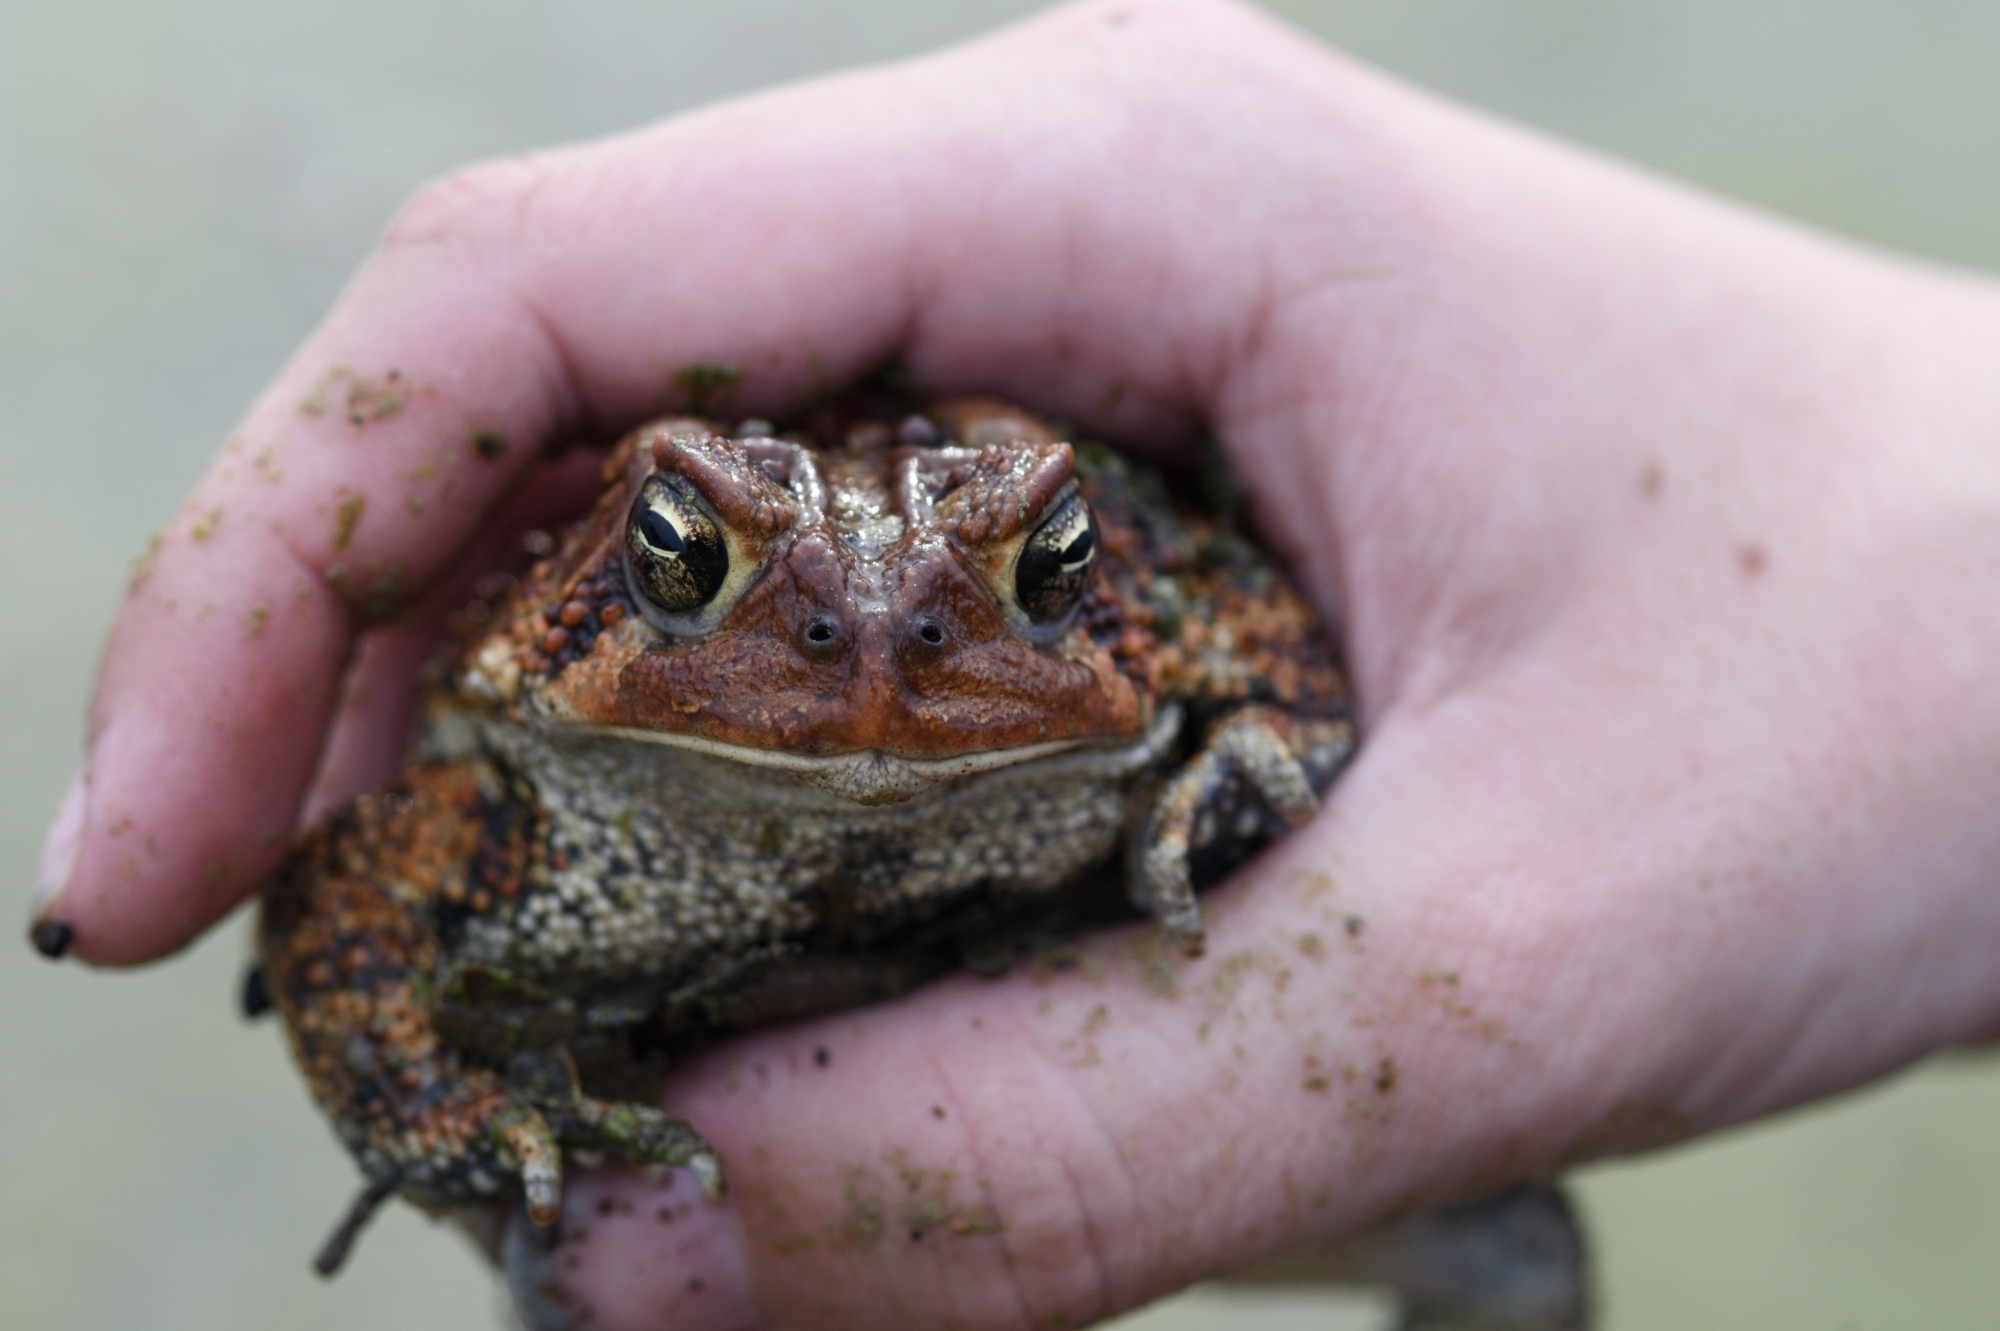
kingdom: Animalia
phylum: Chordata
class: Amphibia
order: Anura
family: Bufonidae
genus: Anaxyrus
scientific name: Anaxyrus americanus
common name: American toad
